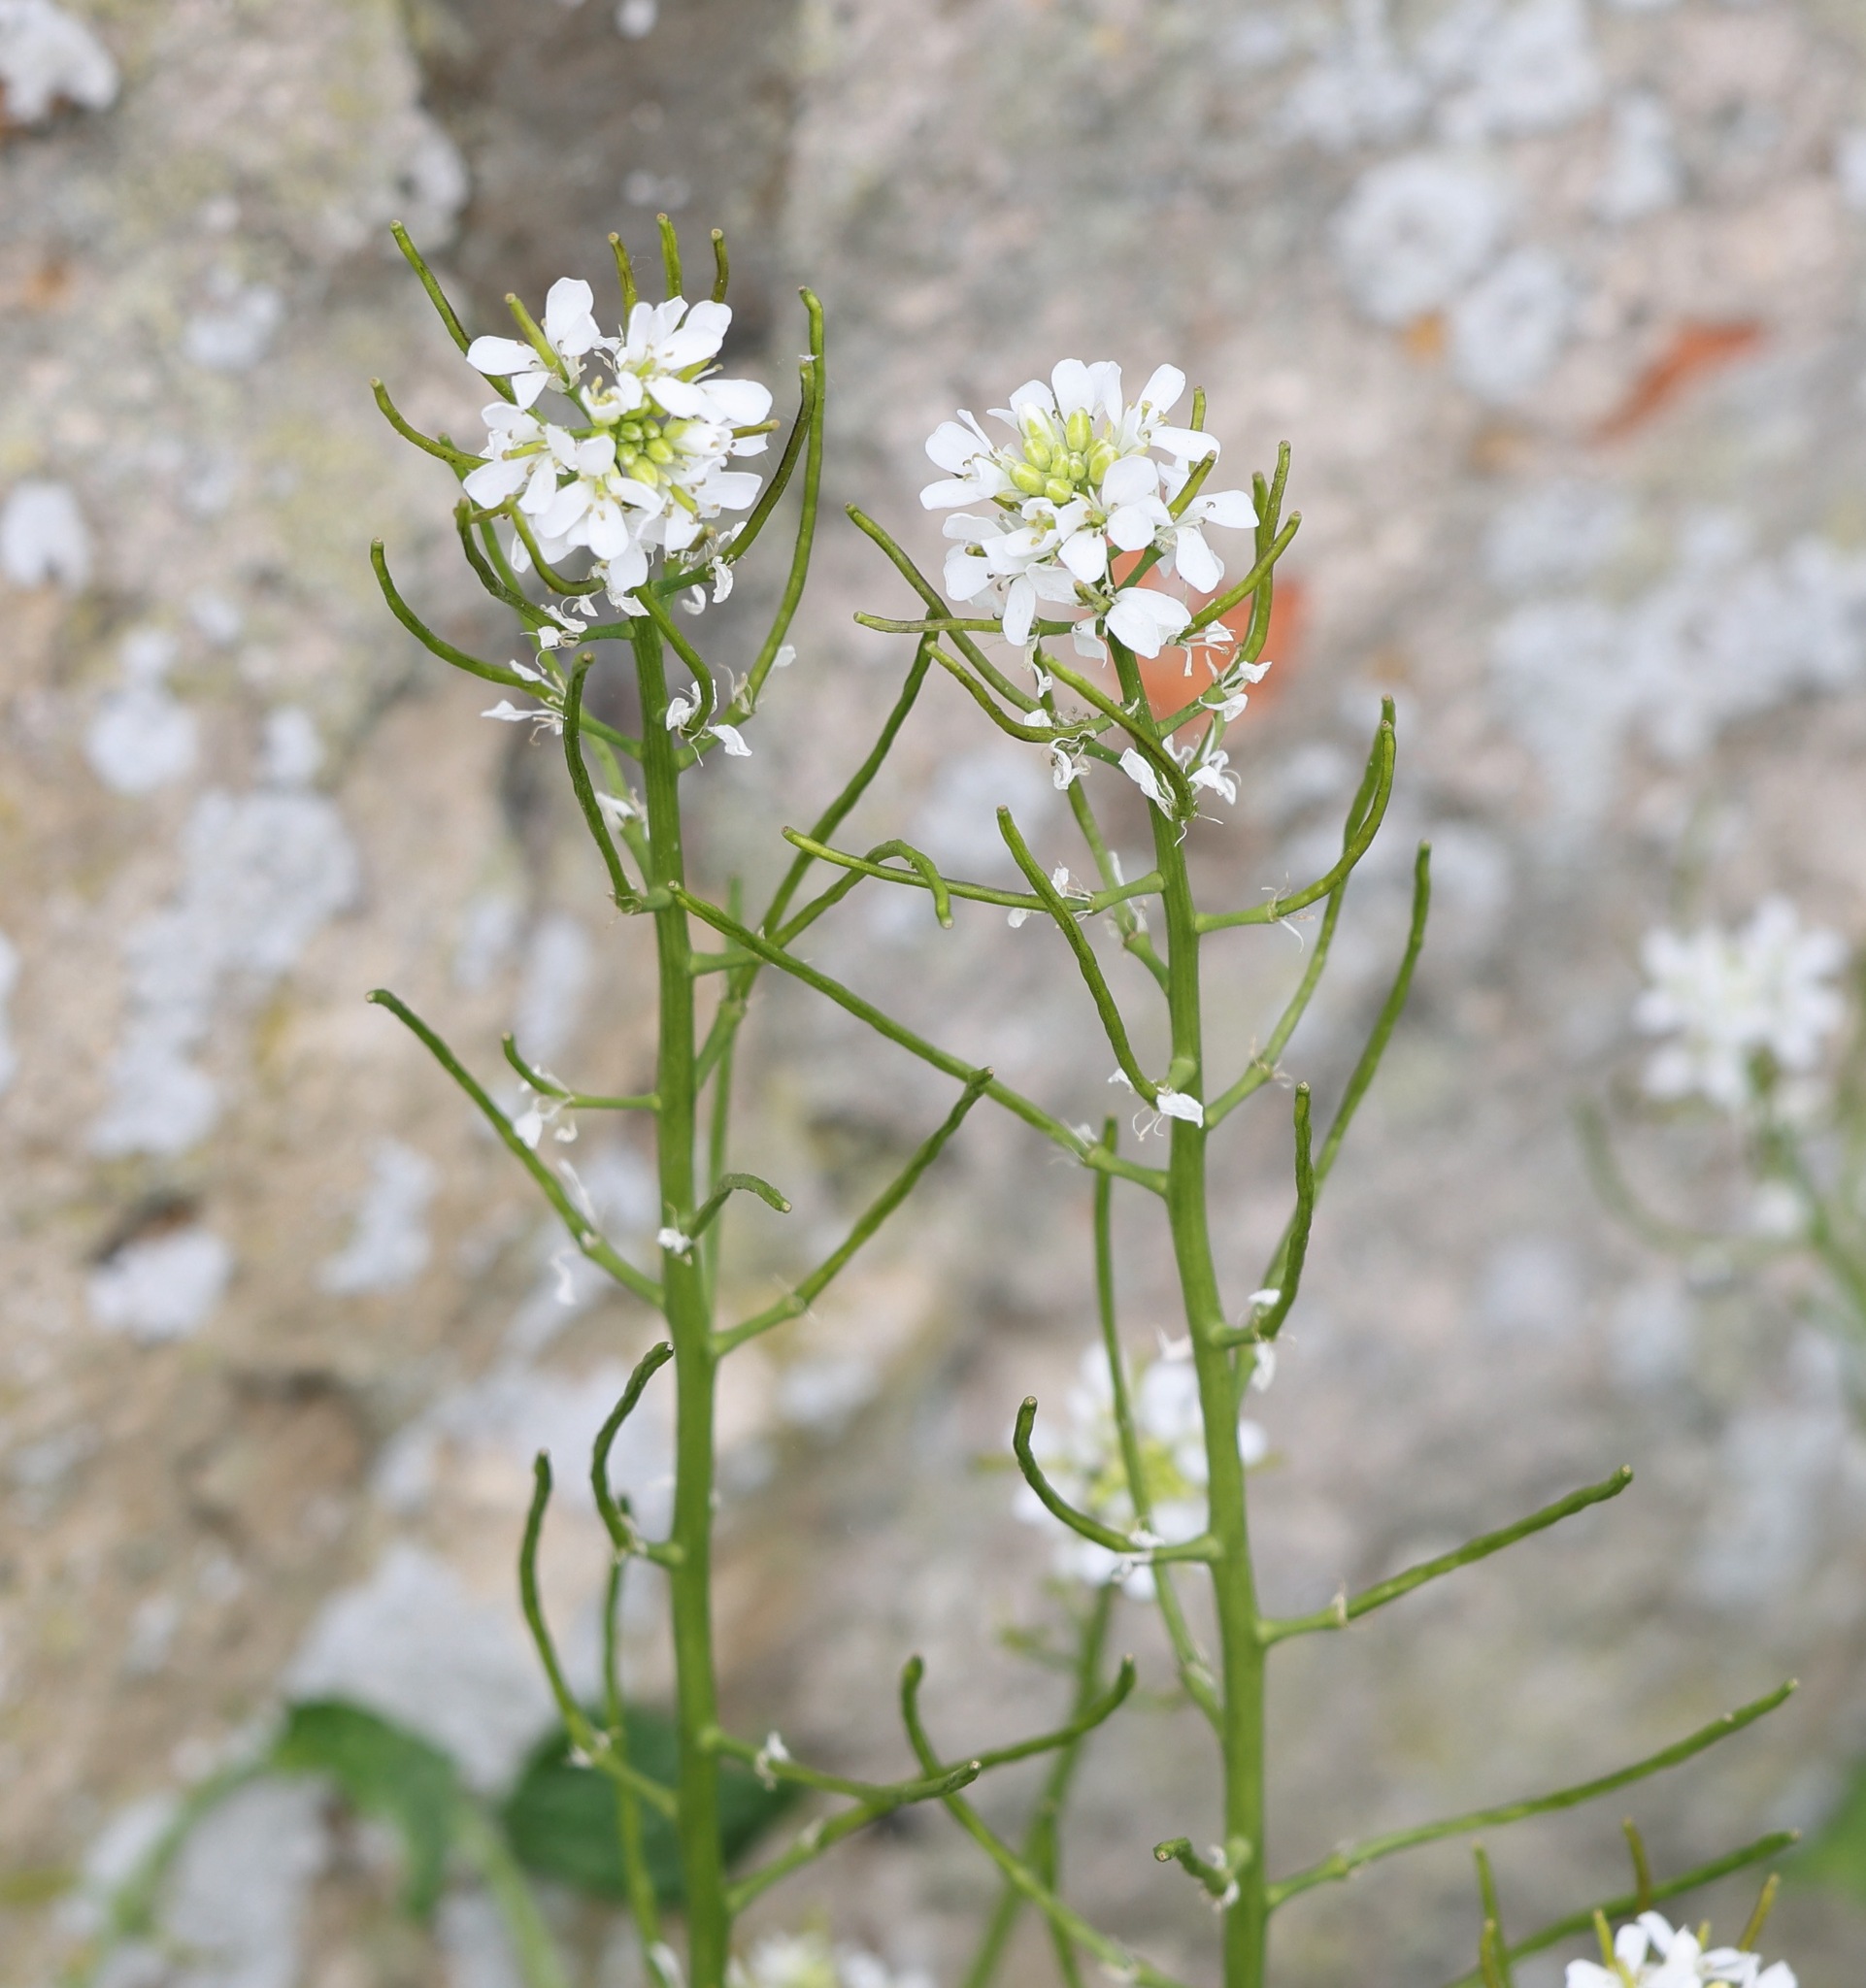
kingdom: Plantae
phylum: Tracheophyta
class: Magnoliopsida
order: Brassicales
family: Brassicaceae
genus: Alliaria
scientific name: Alliaria petiolata
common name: Garlic mustard
